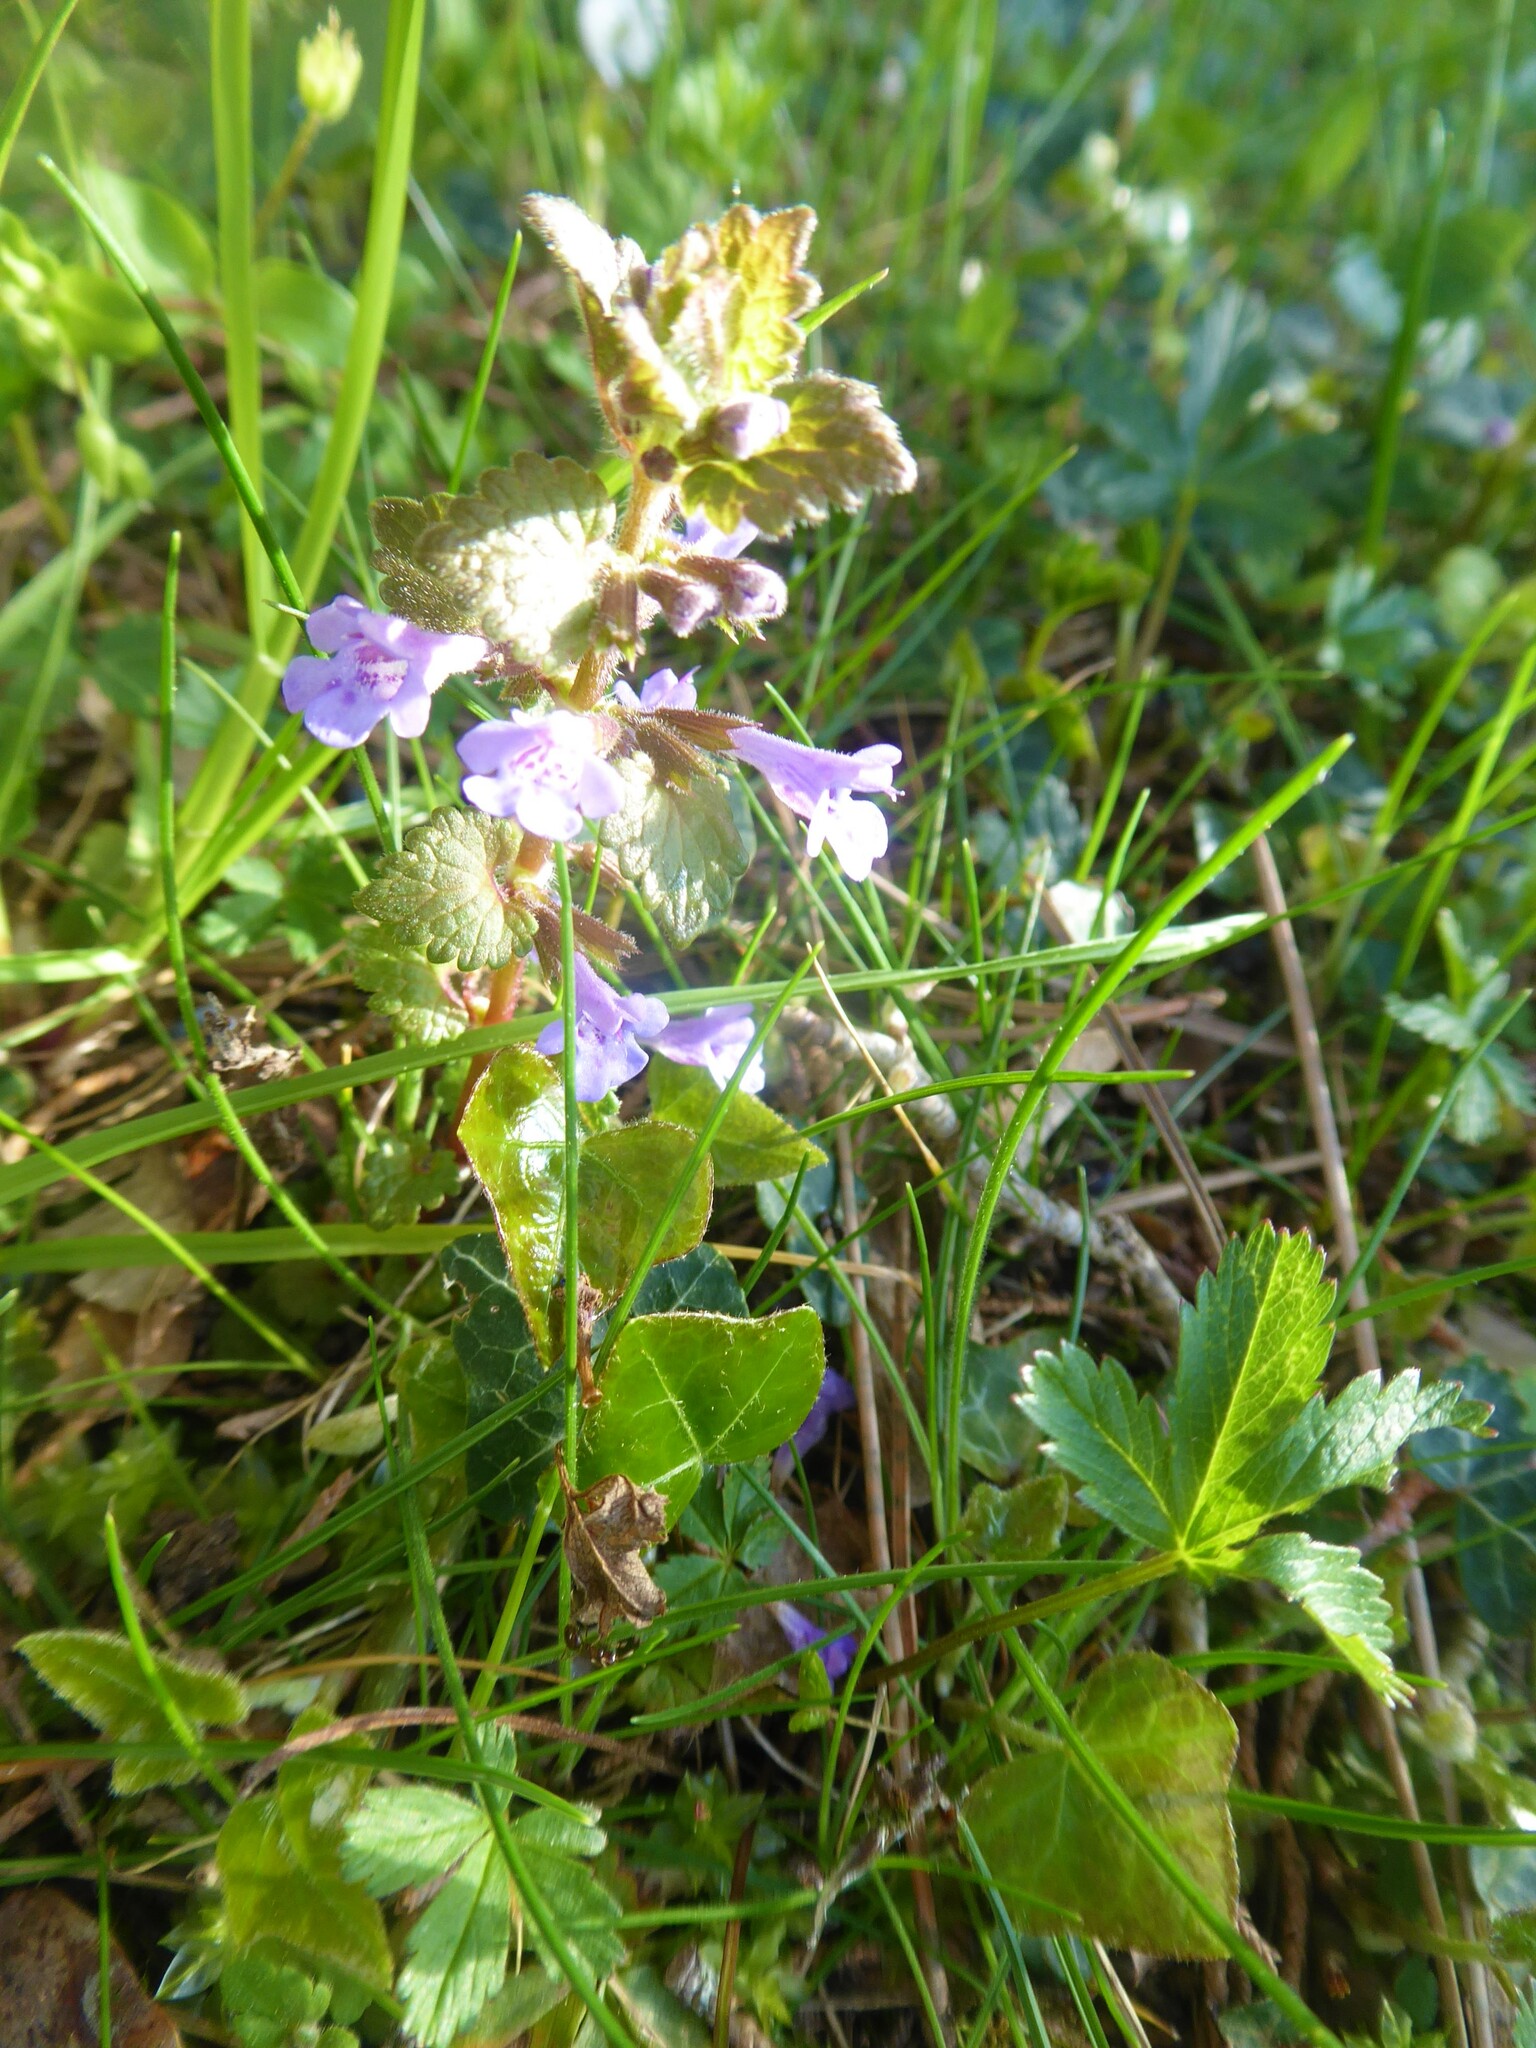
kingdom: Plantae
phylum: Tracheophyta
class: Magnoliopsida
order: Lamiales
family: Lamiaceae
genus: Glechoma
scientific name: Glechoma hederacea
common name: Ground ivy
